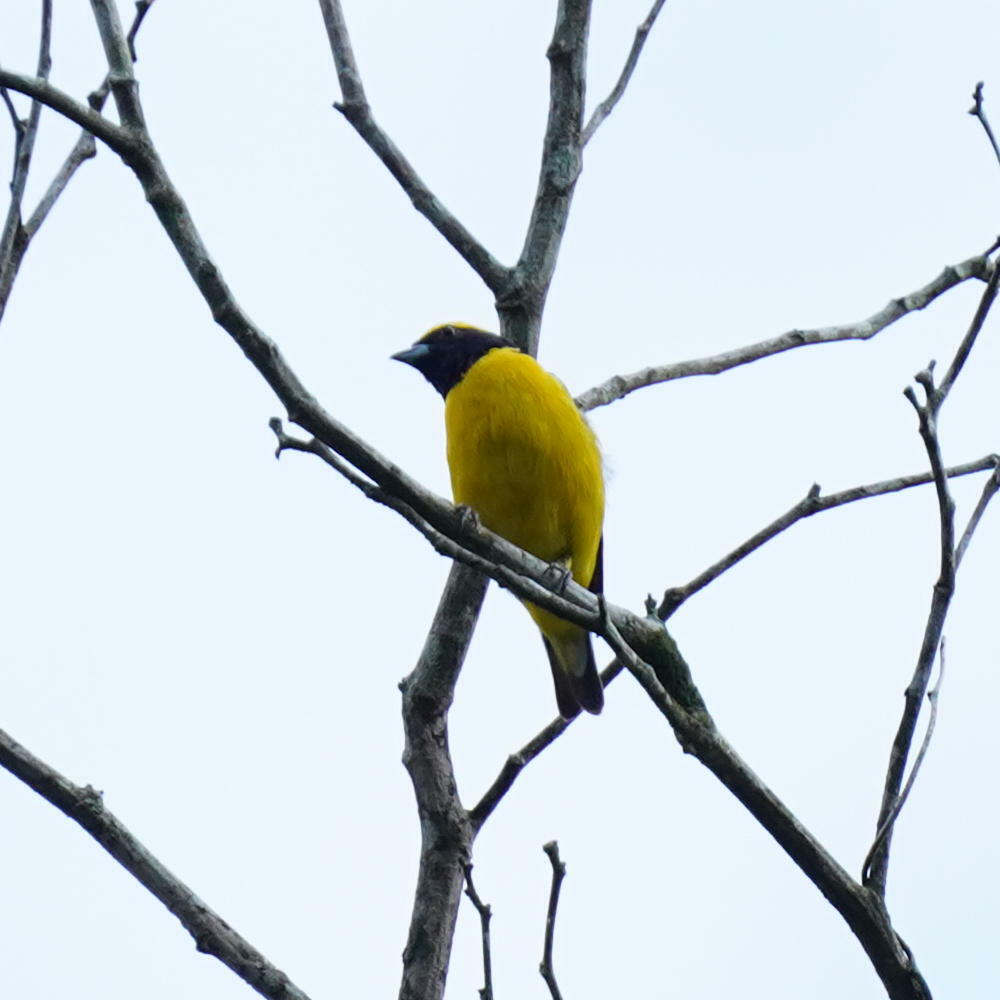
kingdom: Animalia
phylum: Chordata
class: Aves
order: Passeriformes
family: Fringillidae
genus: Euphonia
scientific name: Euphonia luteicapilla
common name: Yellow-crowned euphonia
